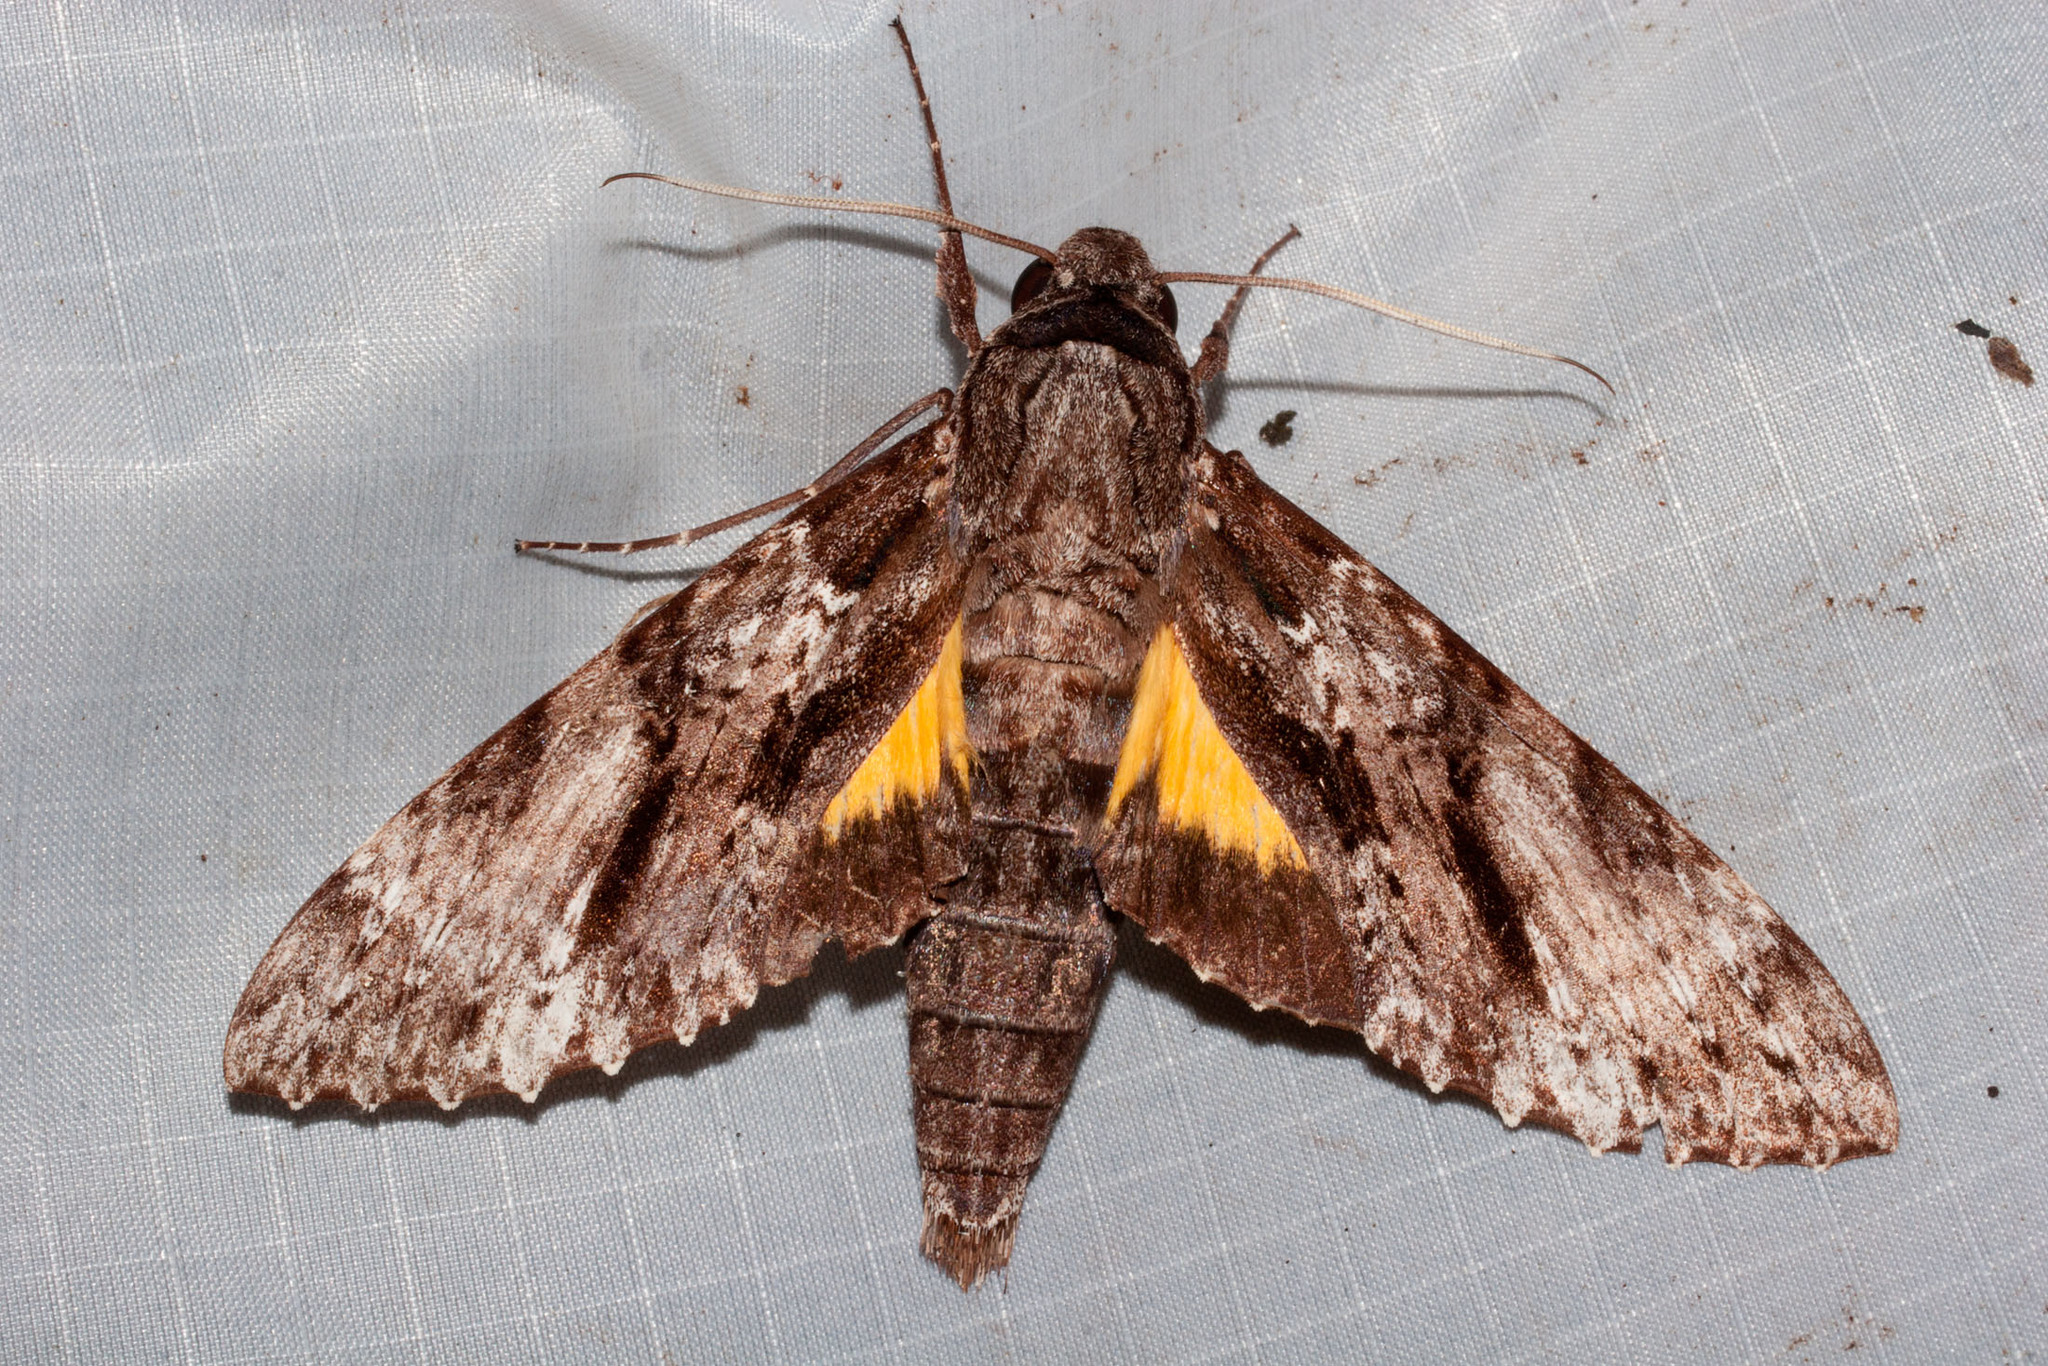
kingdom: Animalia
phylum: Arthropoda
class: Insecta
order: Lepidoptera
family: Sphingidae
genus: Isognathus
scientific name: Isognathus occidentalis
